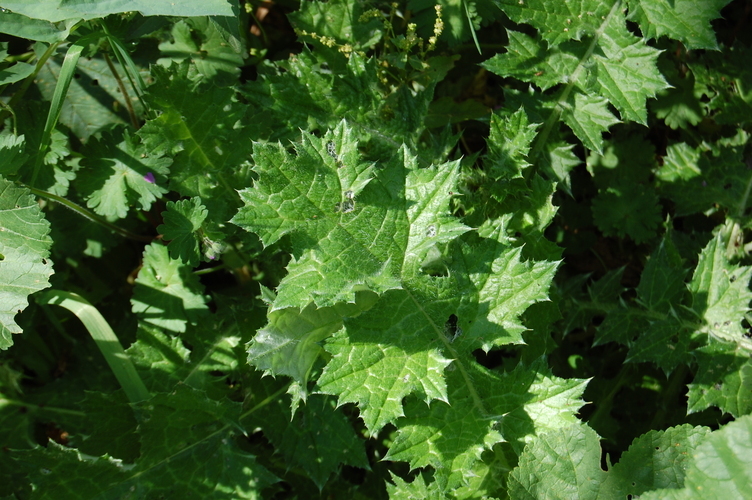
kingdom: Plantae
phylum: Tracheophyta
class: Magnoliopsida
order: Asterales
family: Asteraceae
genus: Carduus
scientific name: Carduus pycnocephalus
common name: Plymouth thistle
